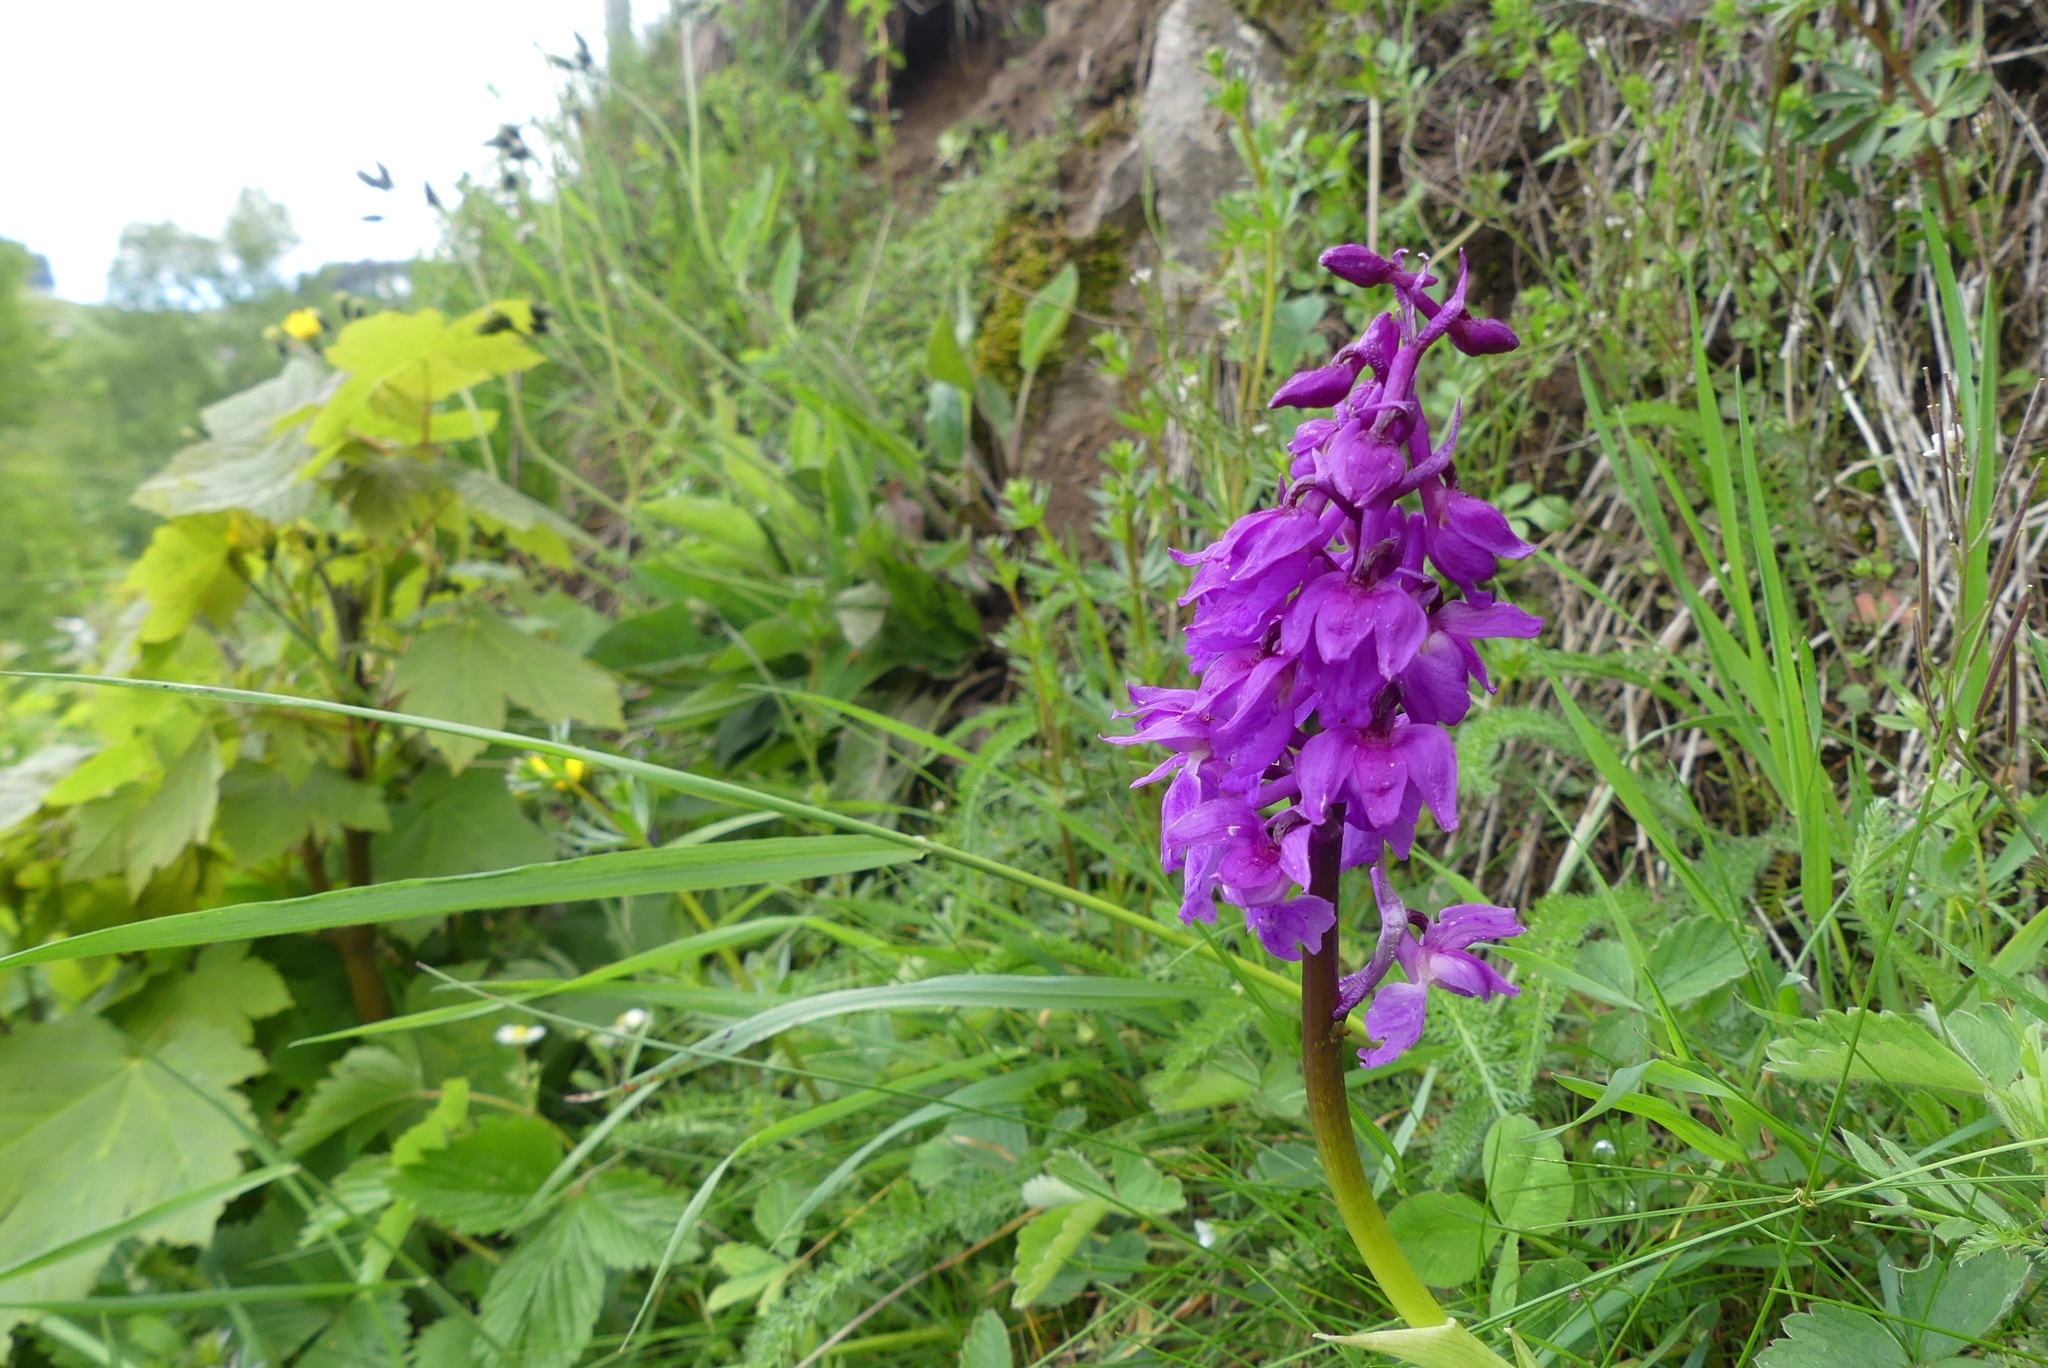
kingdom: Plantae
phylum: Tracheophyta
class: Liliopsida
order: Asparagales
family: Orchidaceae
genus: Orchis
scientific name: Orchis mascula
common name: Early-purple orchid
